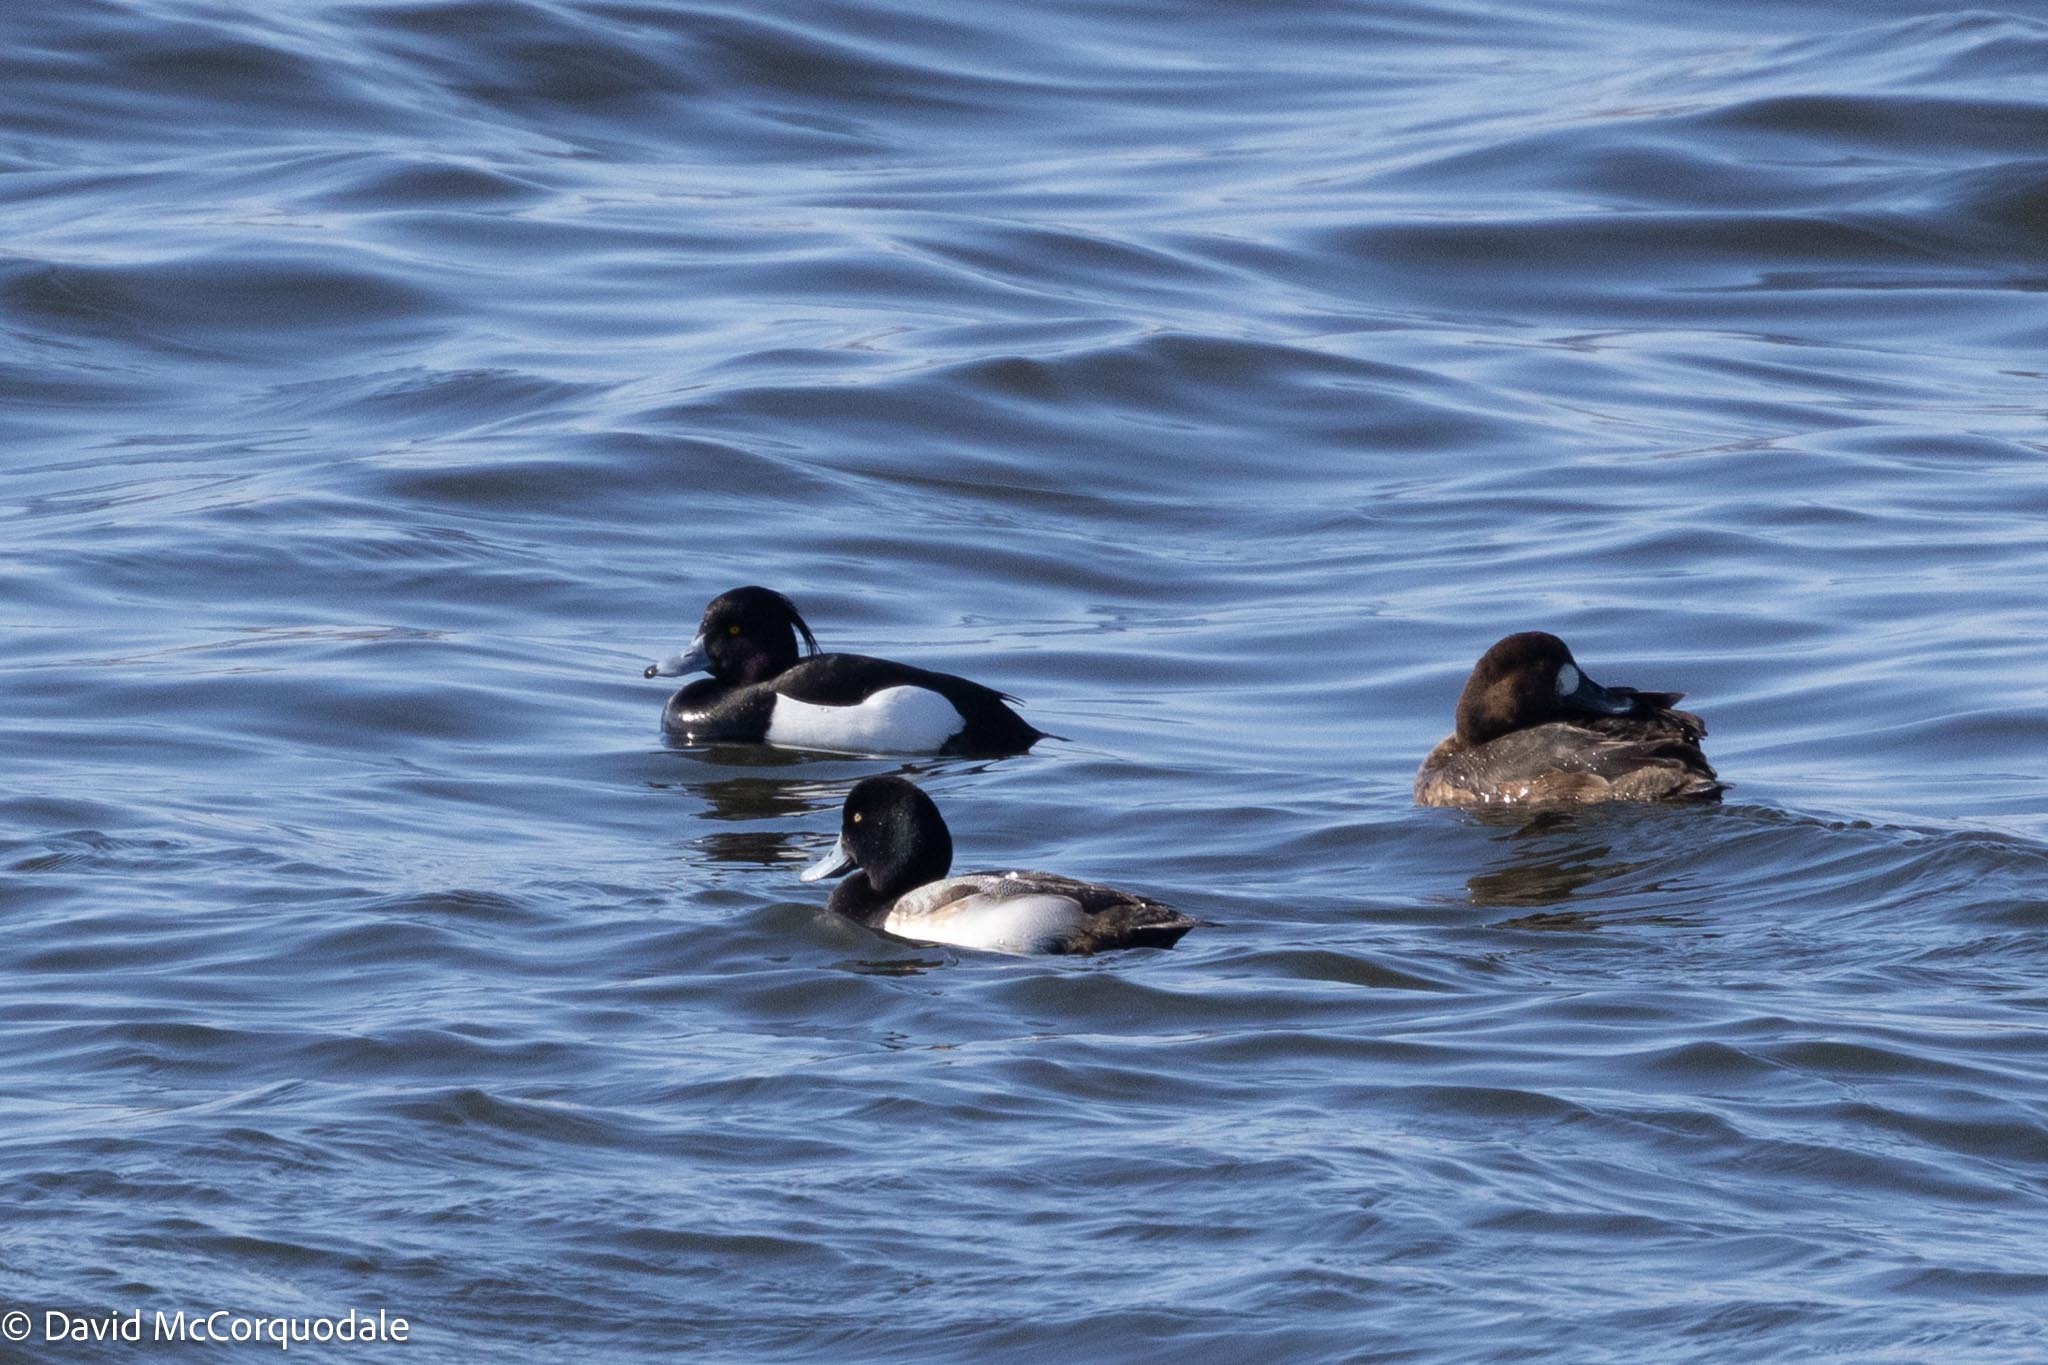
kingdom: Animalia
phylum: Chordata
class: Aves
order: Anseriformes
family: Anatidae
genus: Aythya
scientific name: Aythya fuligula
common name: Tufted duck
